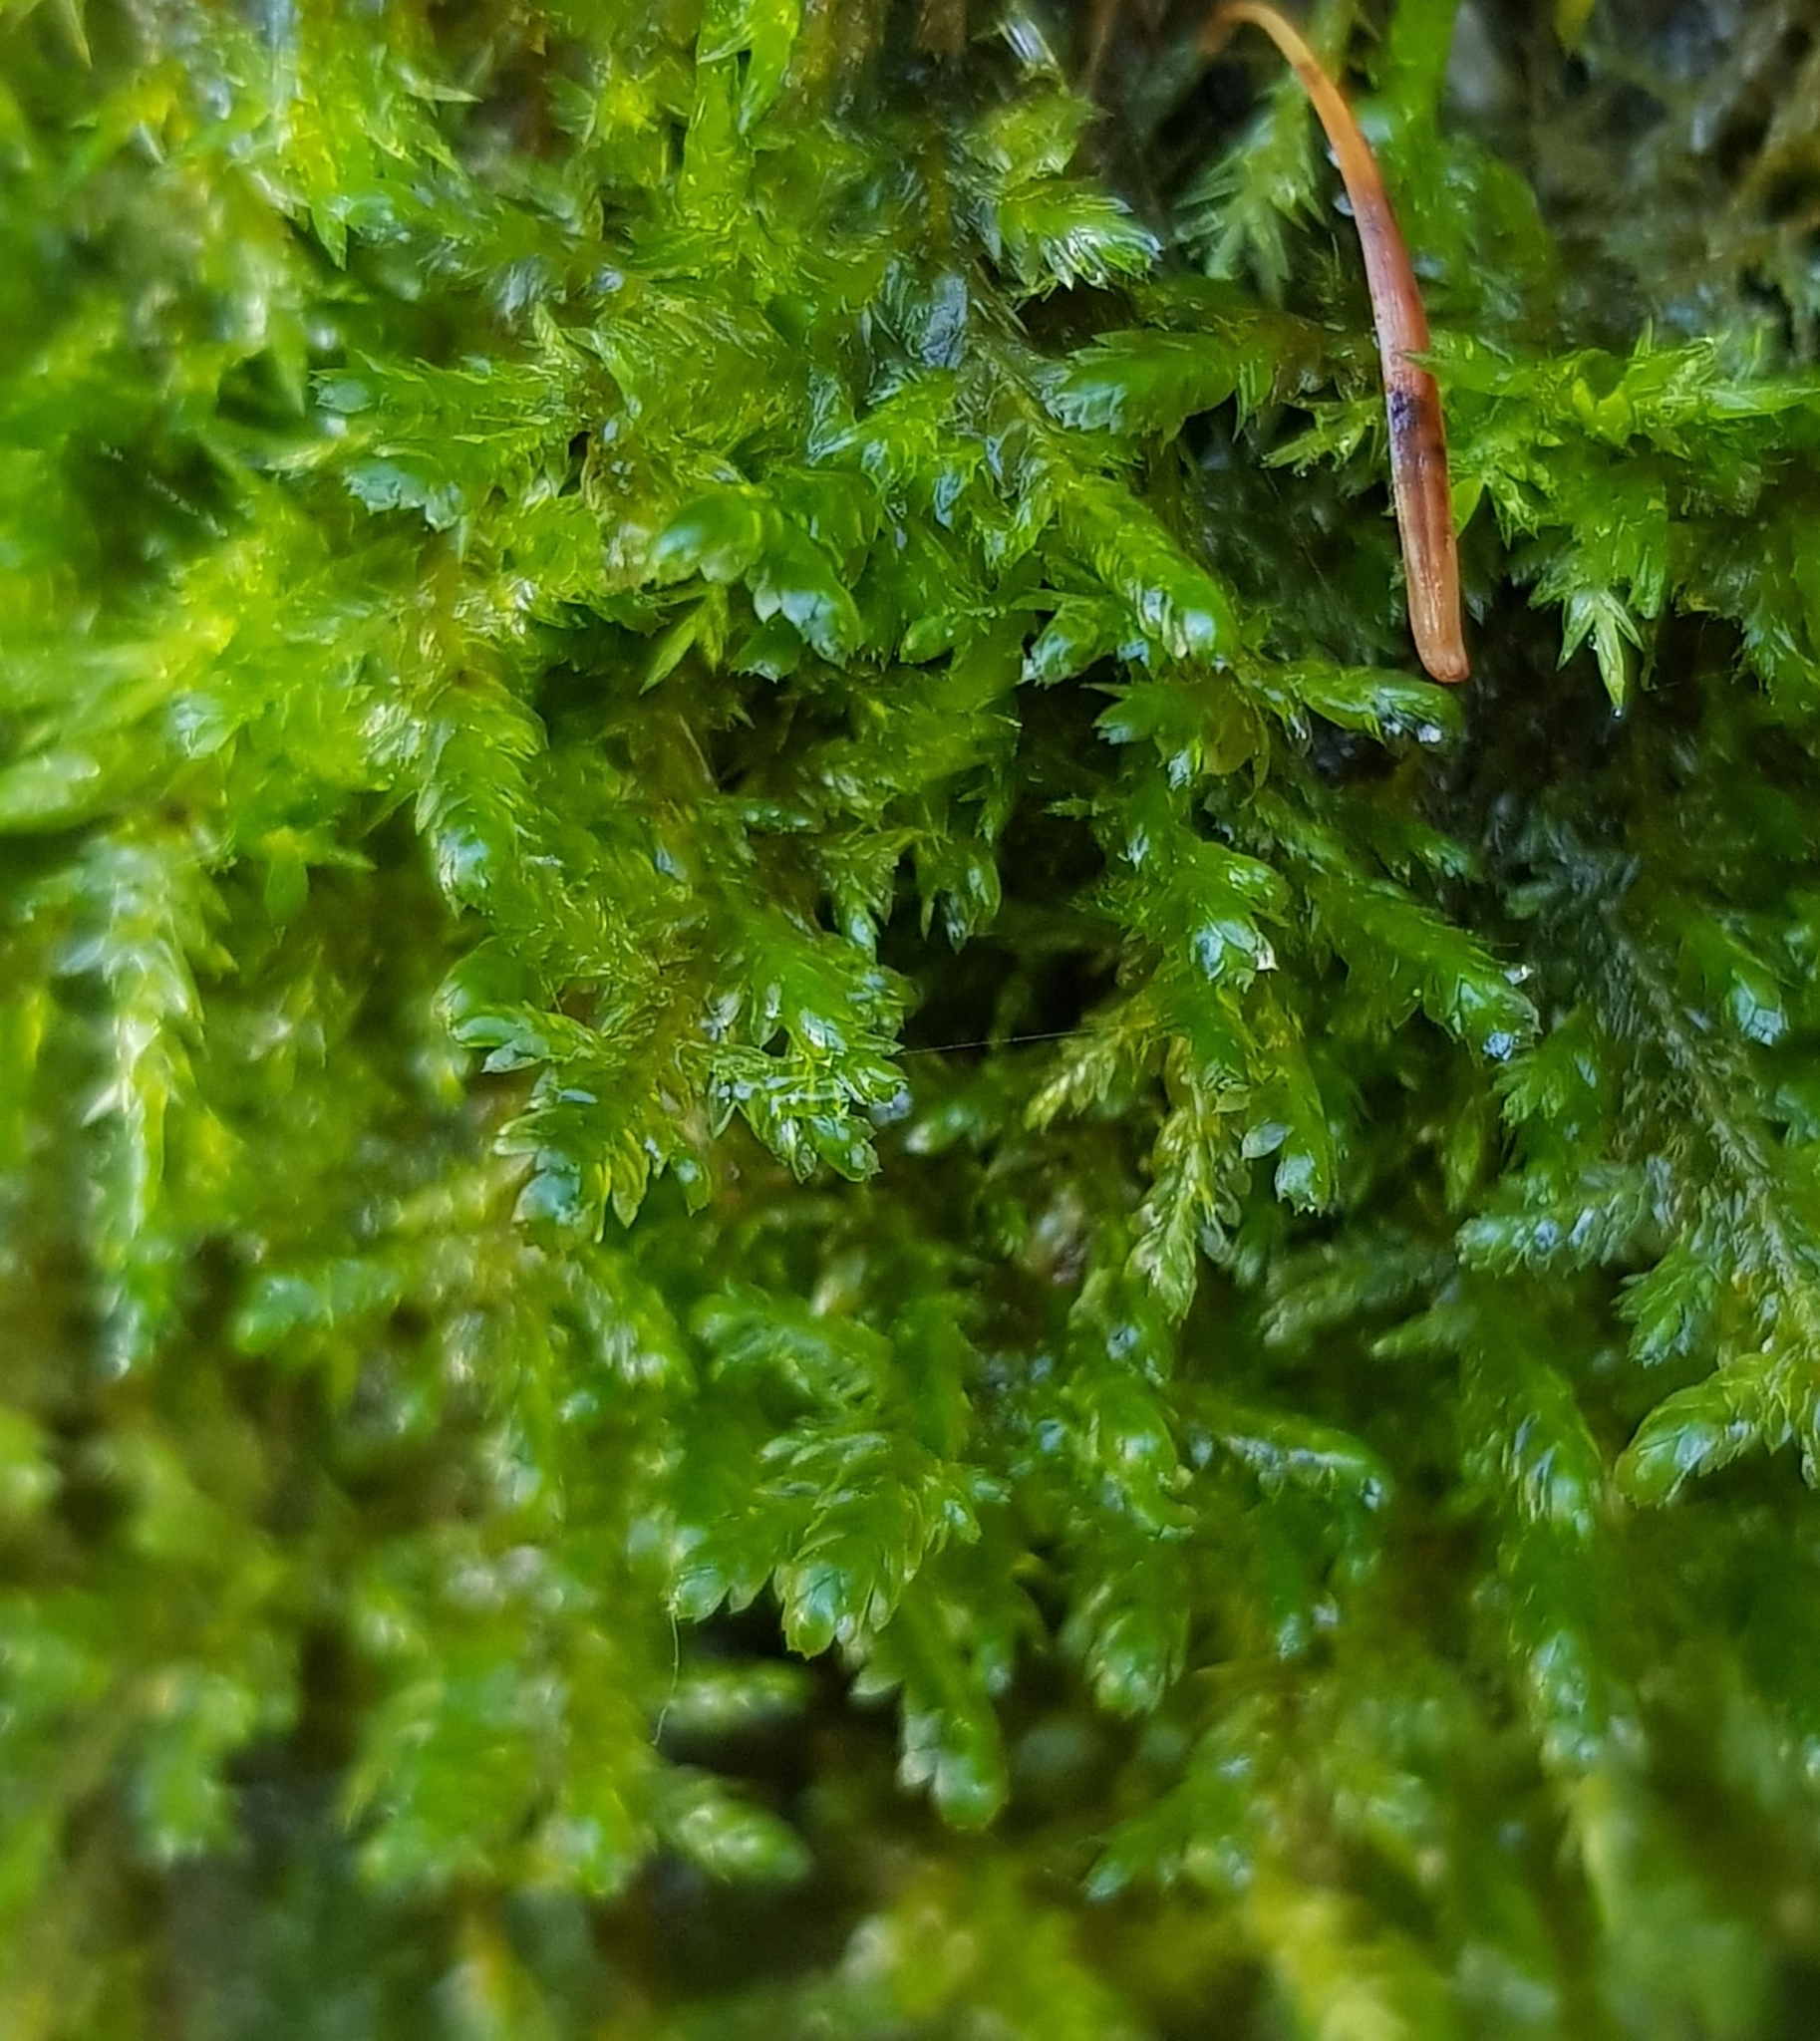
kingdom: Plantae
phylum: Bryophyta
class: Bryopsida
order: Hypnales
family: Neckeraceae
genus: Alleniella
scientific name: Alleniella complanata
